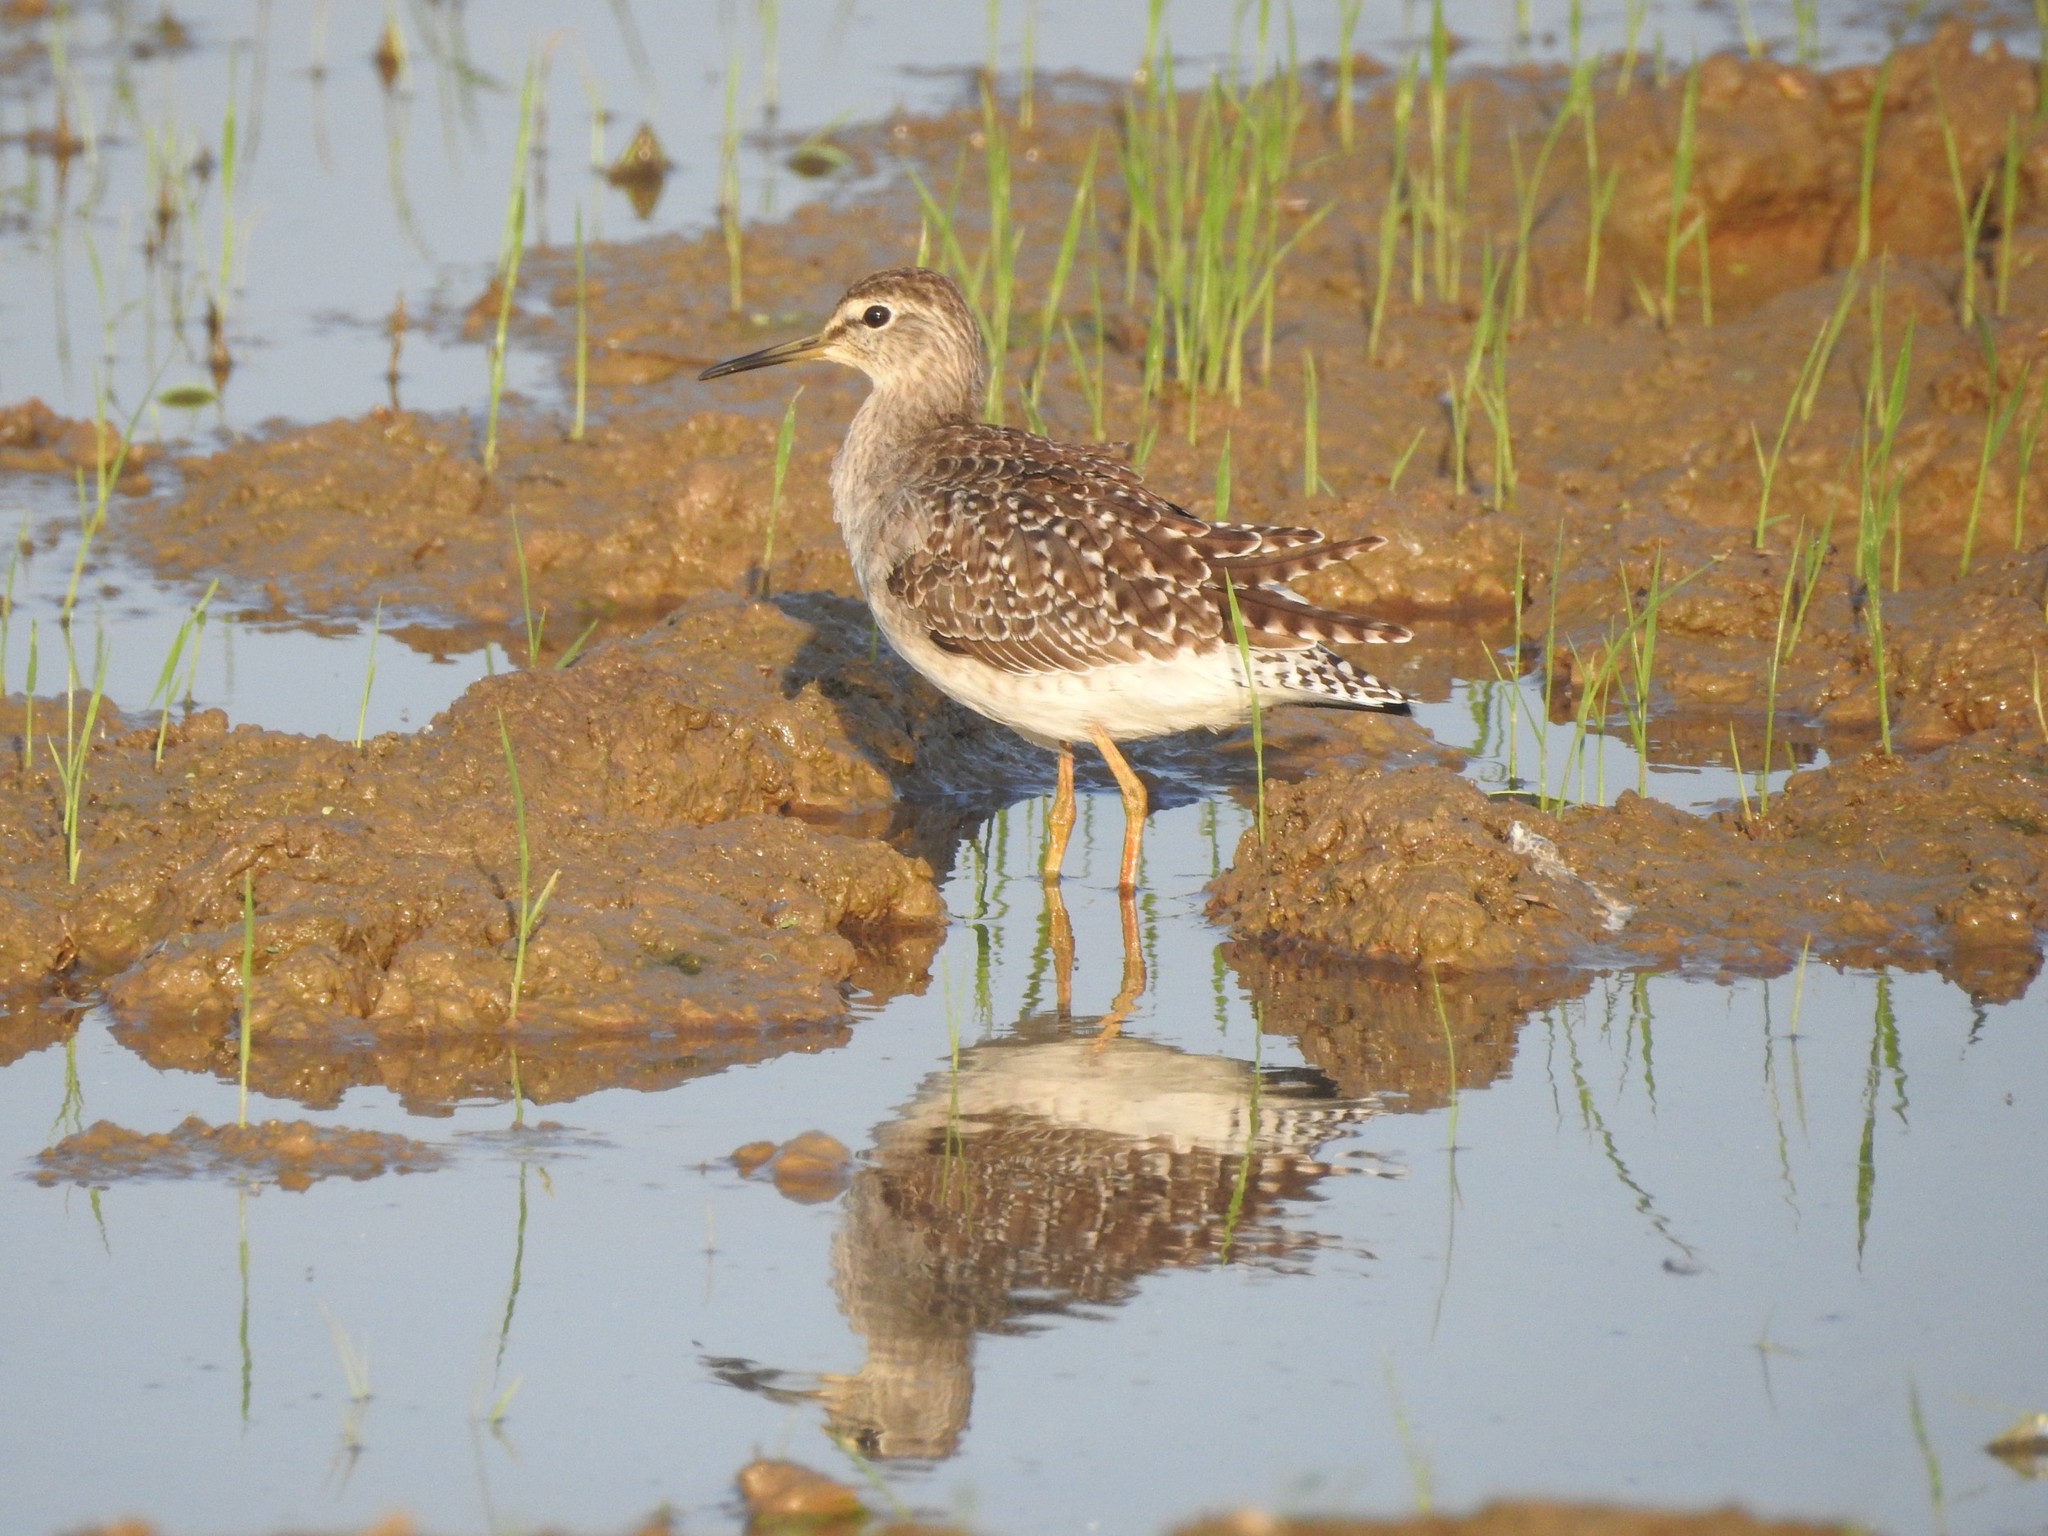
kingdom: Animalia
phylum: Chordata
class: Aves
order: Charadriiformes
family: Scolopacidae
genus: Tringa
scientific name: Tringa glareola
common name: Wood sandpiper
